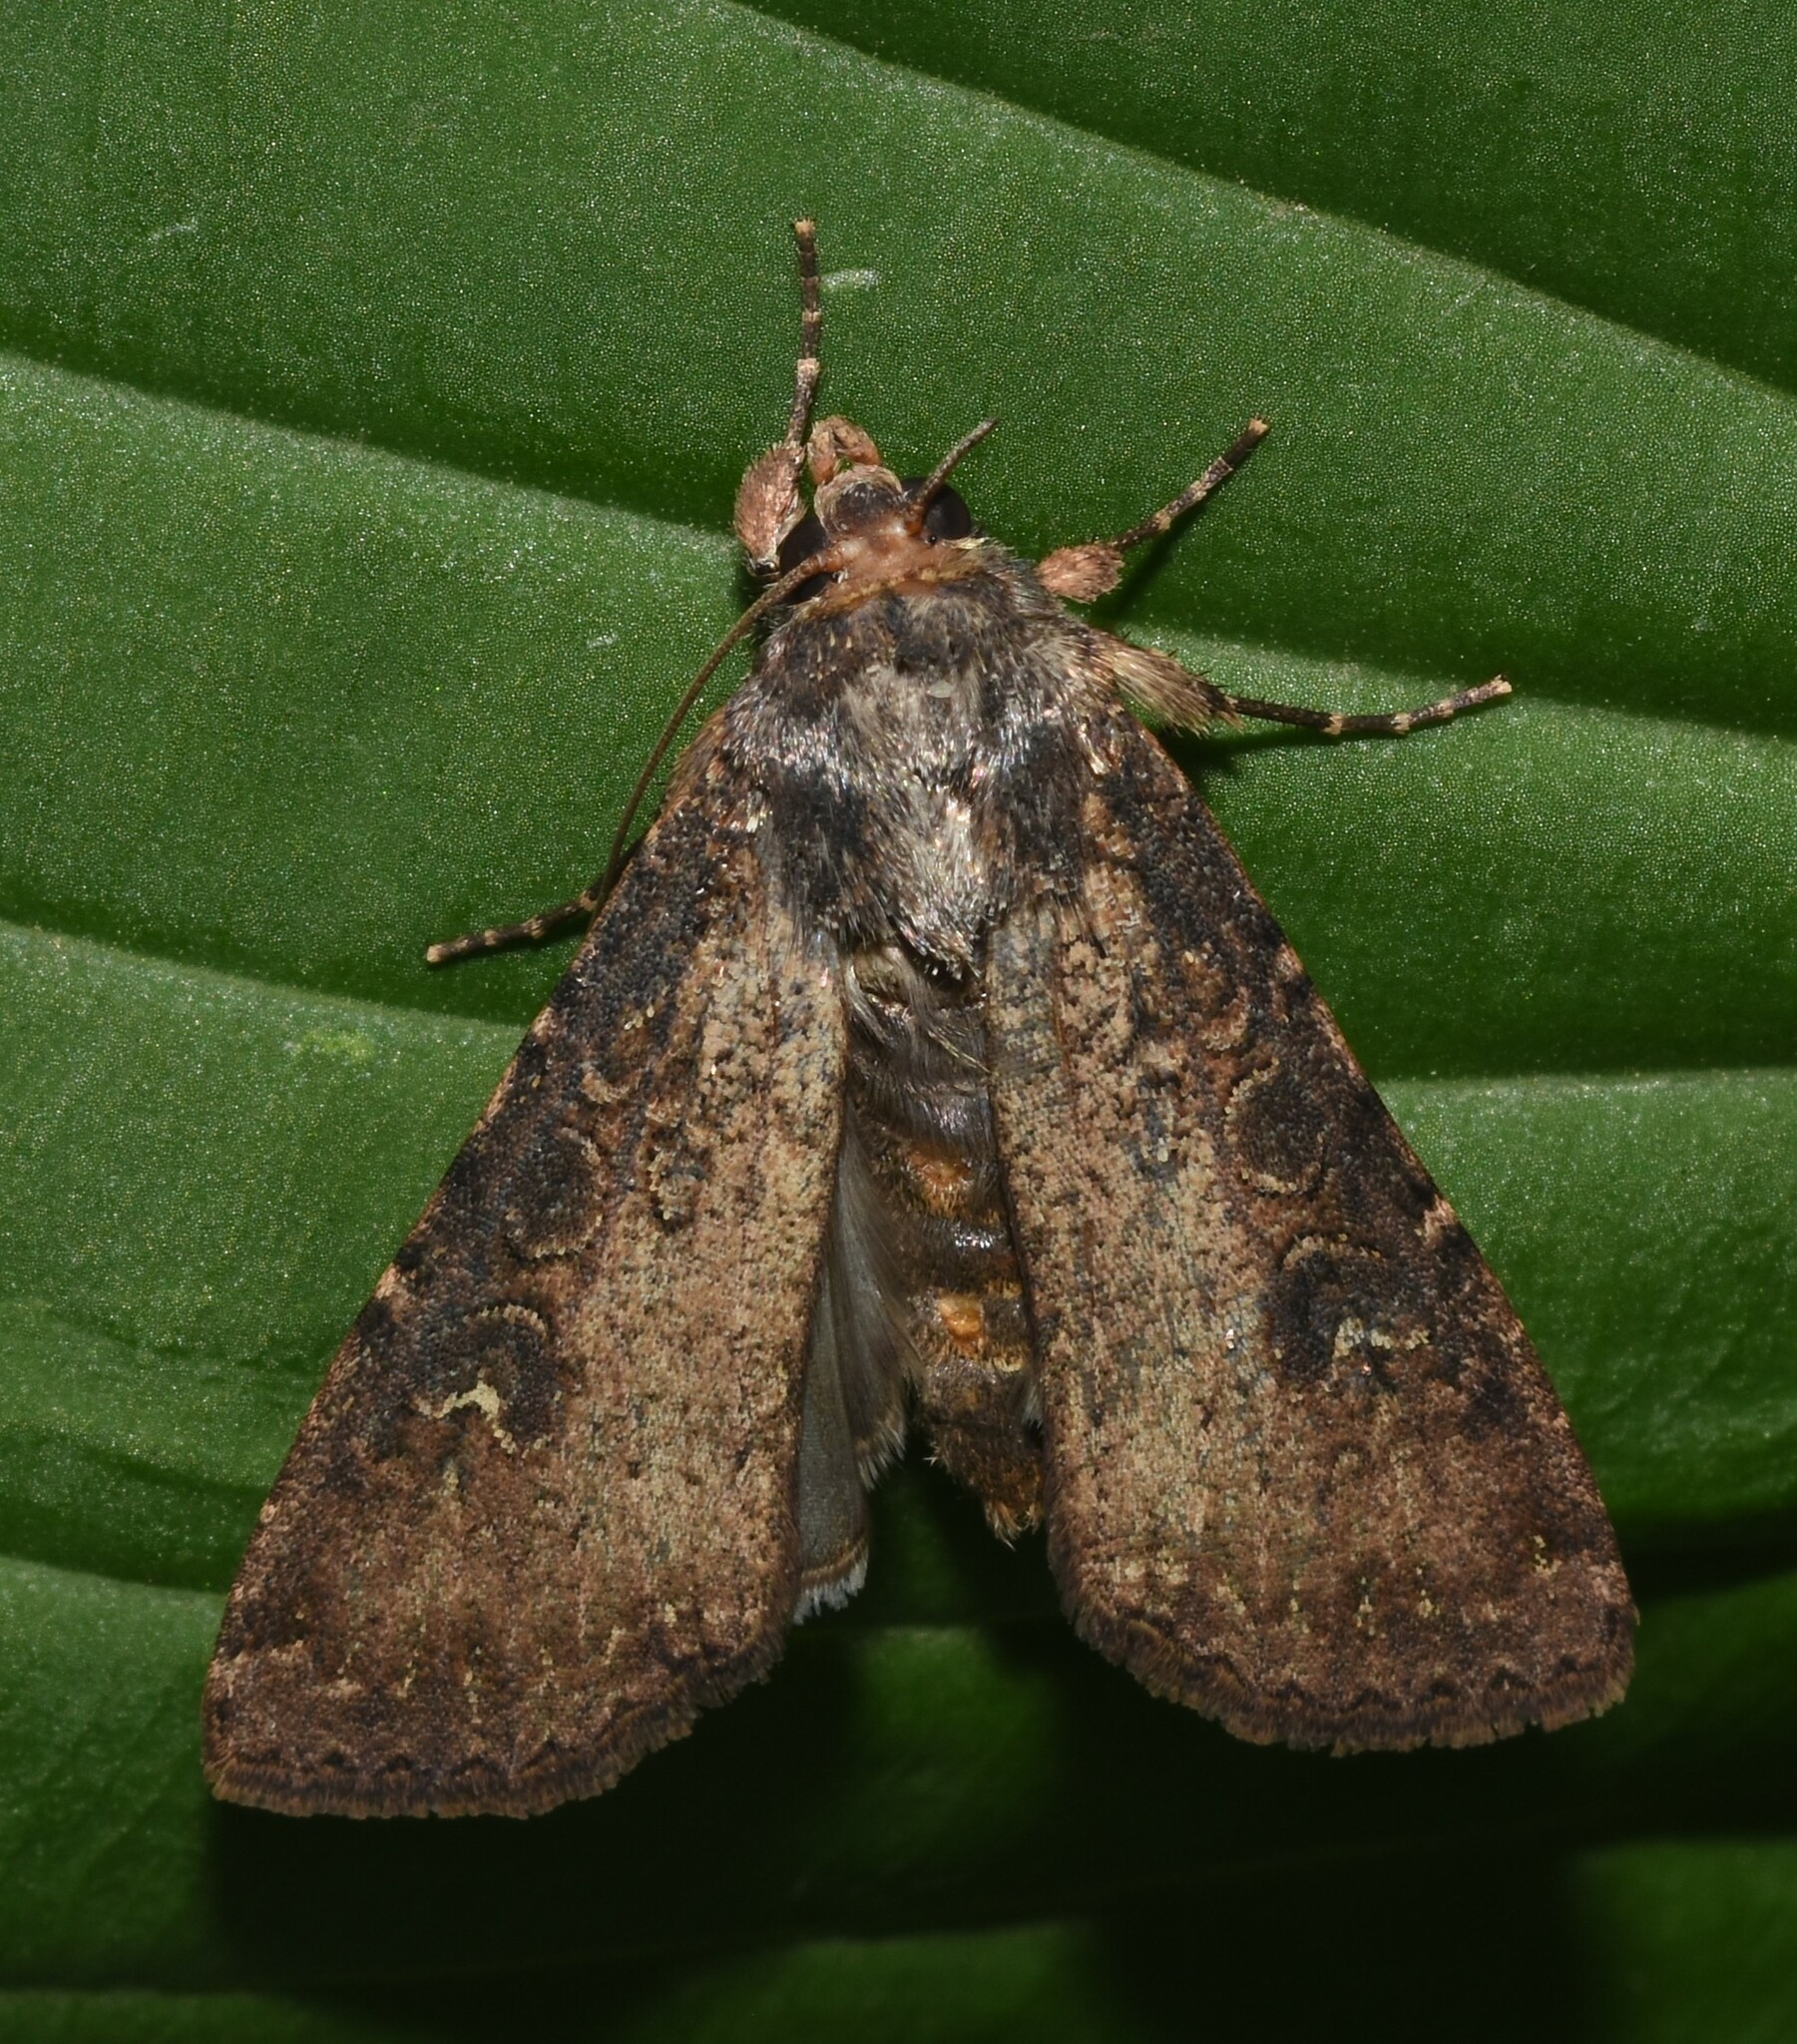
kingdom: Animalia
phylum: Arthropoda
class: Insecta
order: Lepidoptera
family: Noctuidae
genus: Peridroma
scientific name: Peridroma saucia
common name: Pearly underwing
